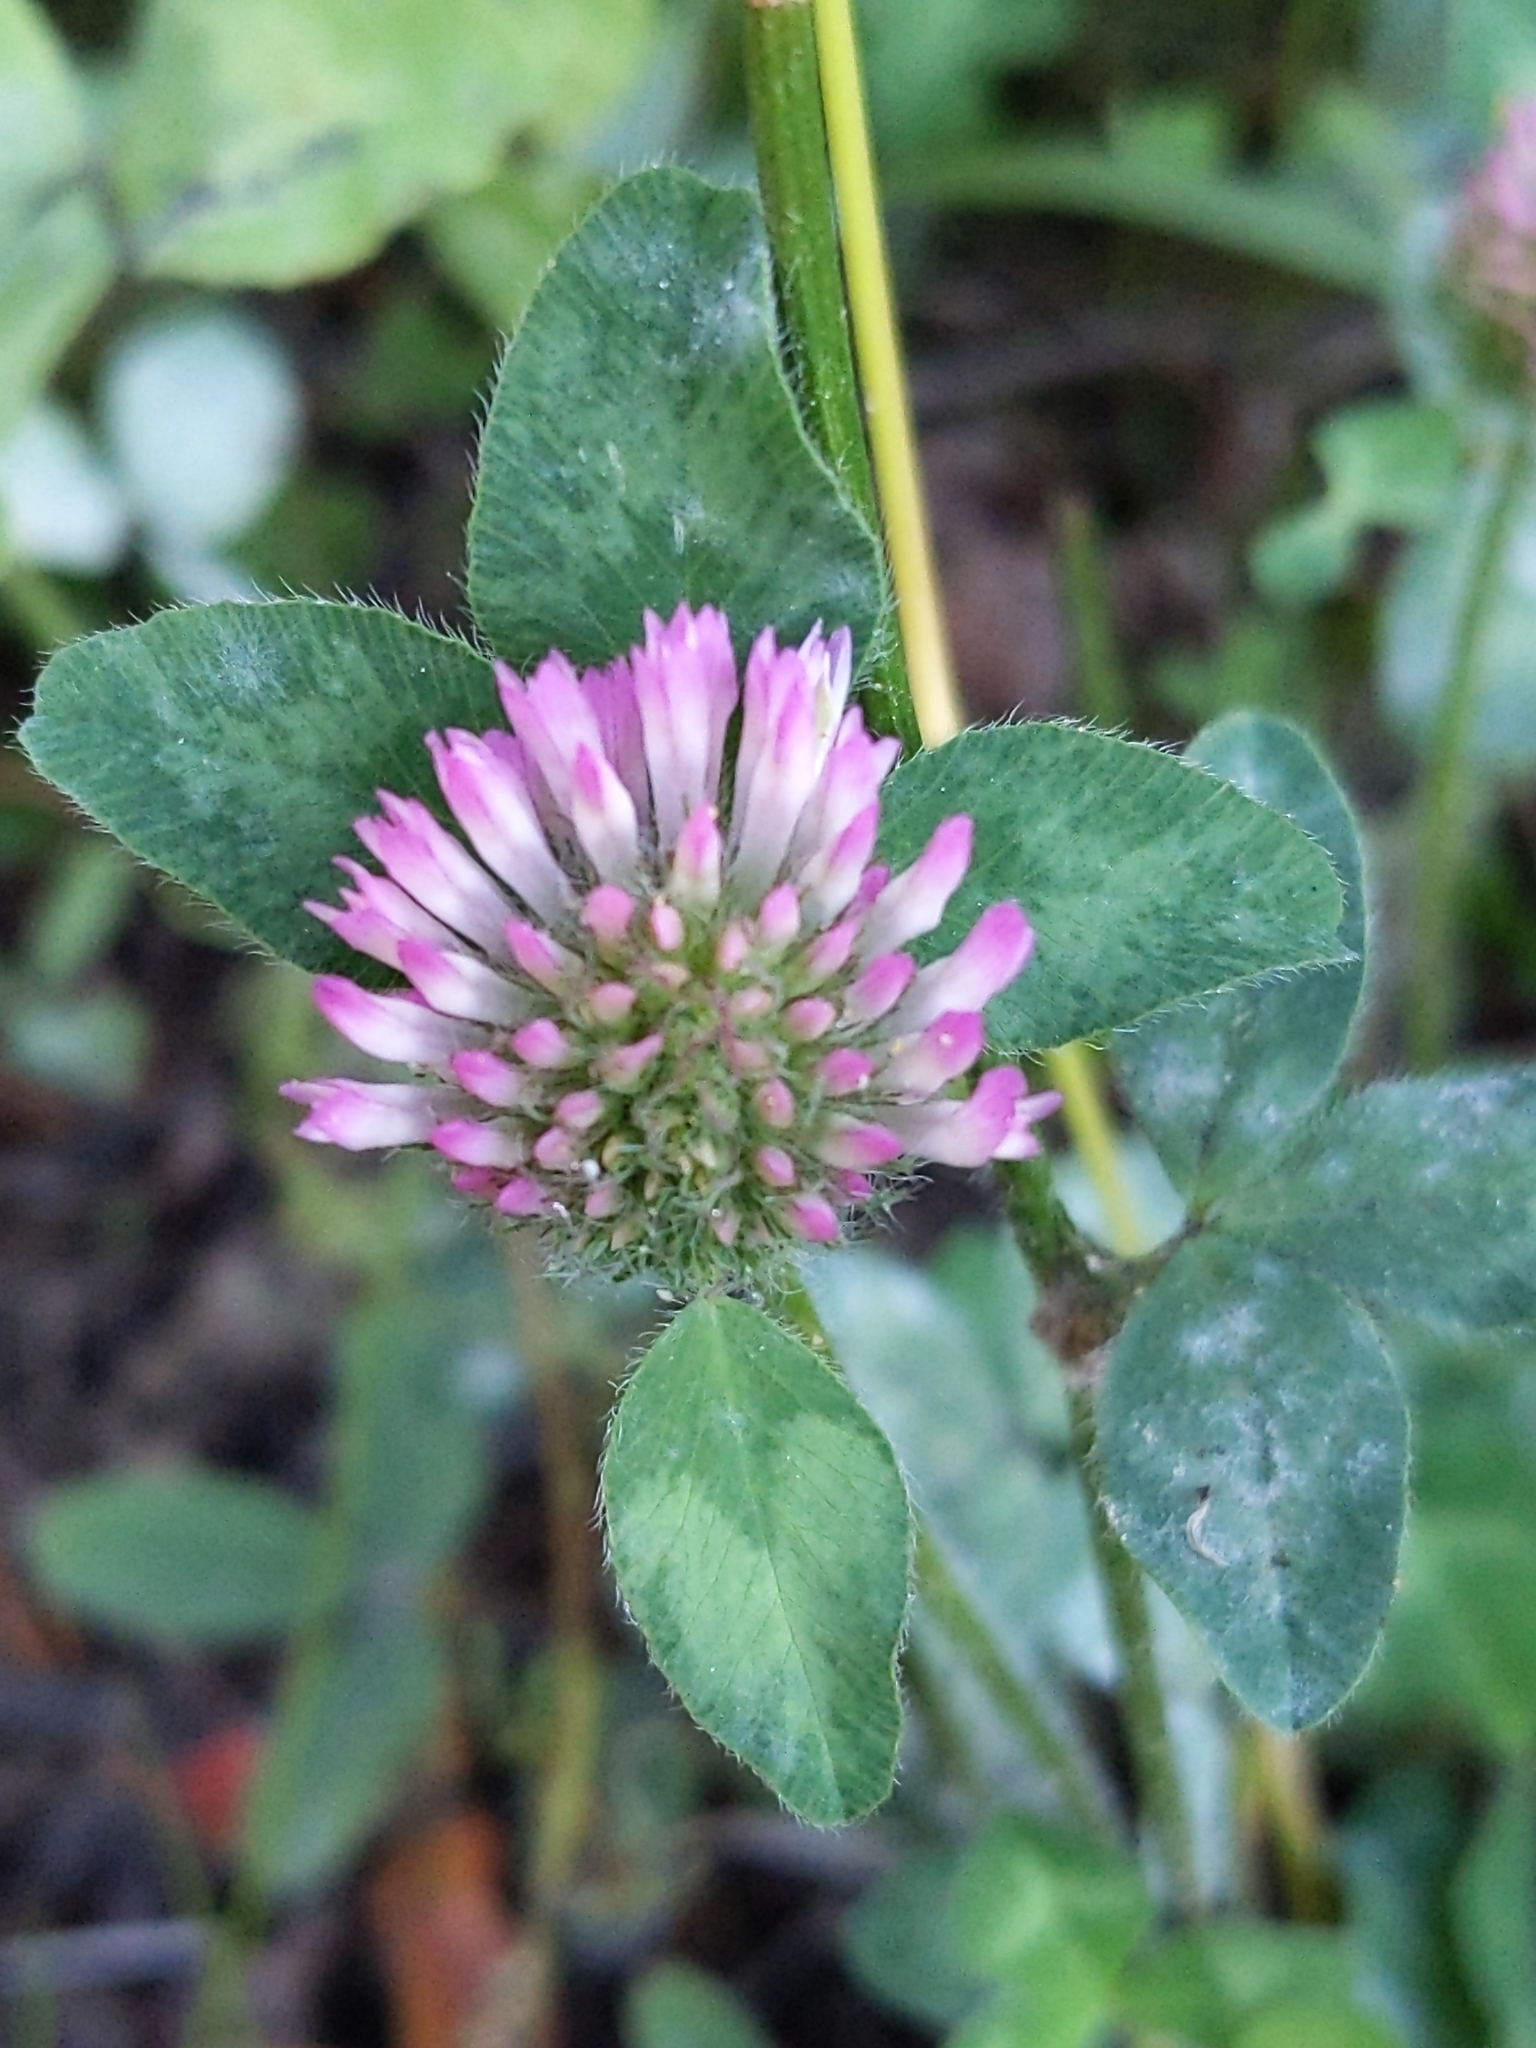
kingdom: Plantae
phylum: Tracheophyta
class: Magnoliopsida
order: Fabales
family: Fabaceae
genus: Trifolium
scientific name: Trifolium pratense
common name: Red clover
